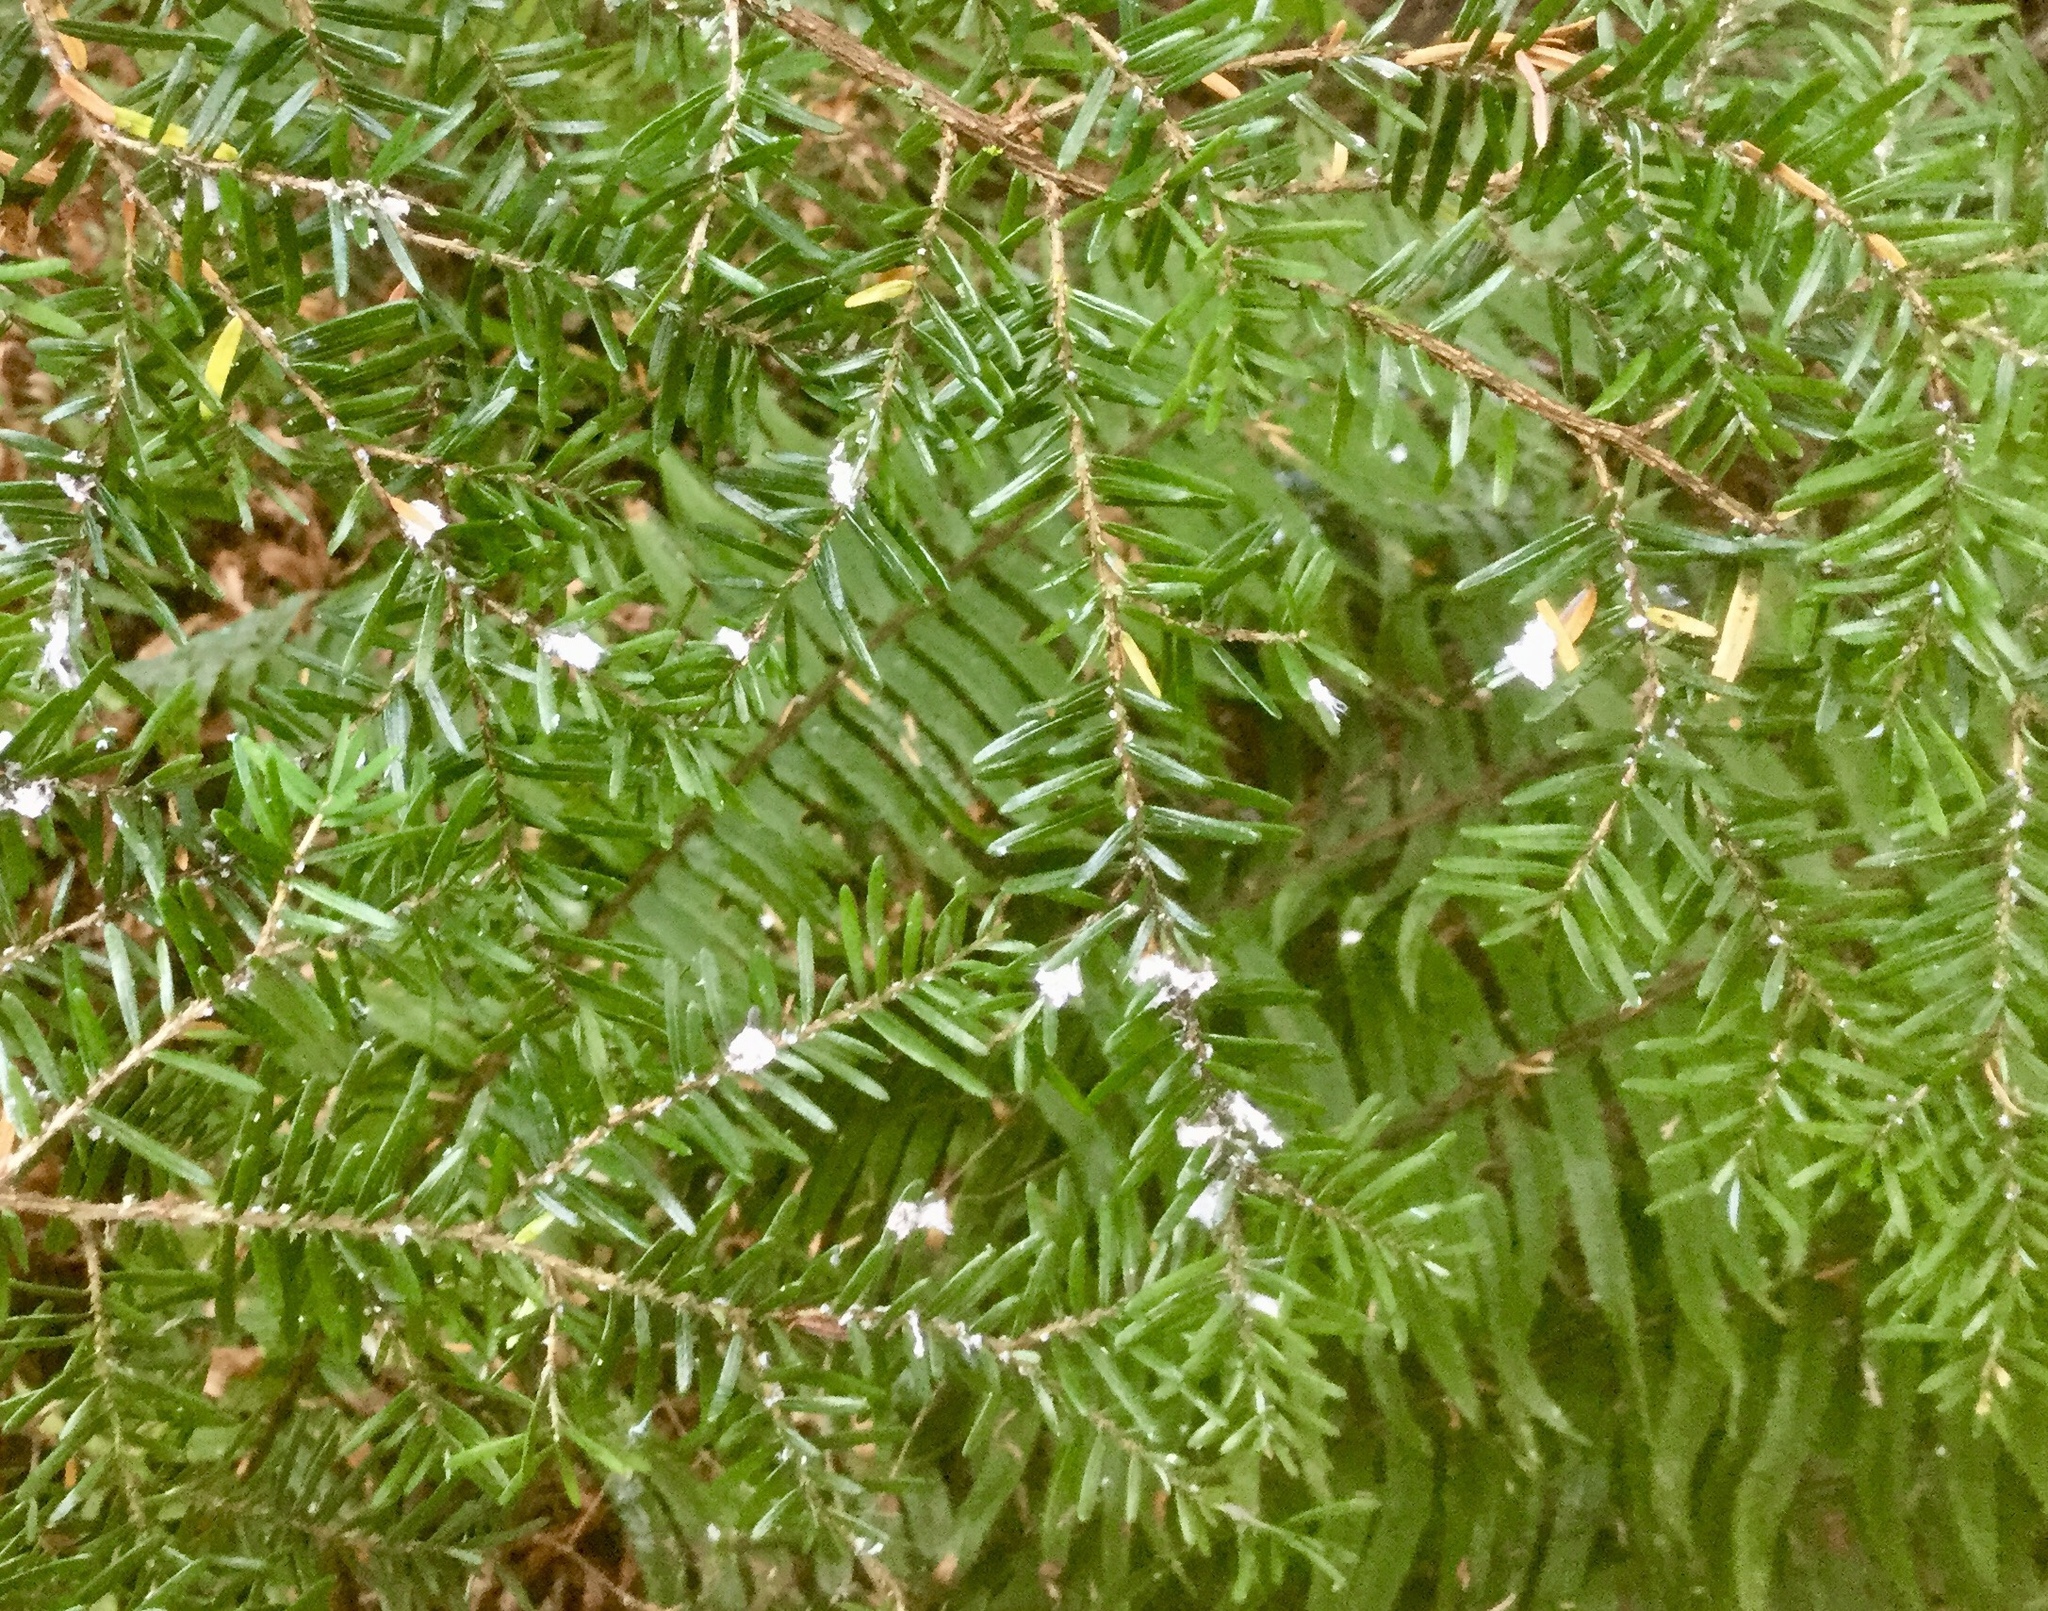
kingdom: Animalia
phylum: Arthropoda
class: Insecta
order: Hemiptera
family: Adelgidae
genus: Adelges
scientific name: Adelges tsugae
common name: Hemlock woolly adelgid
